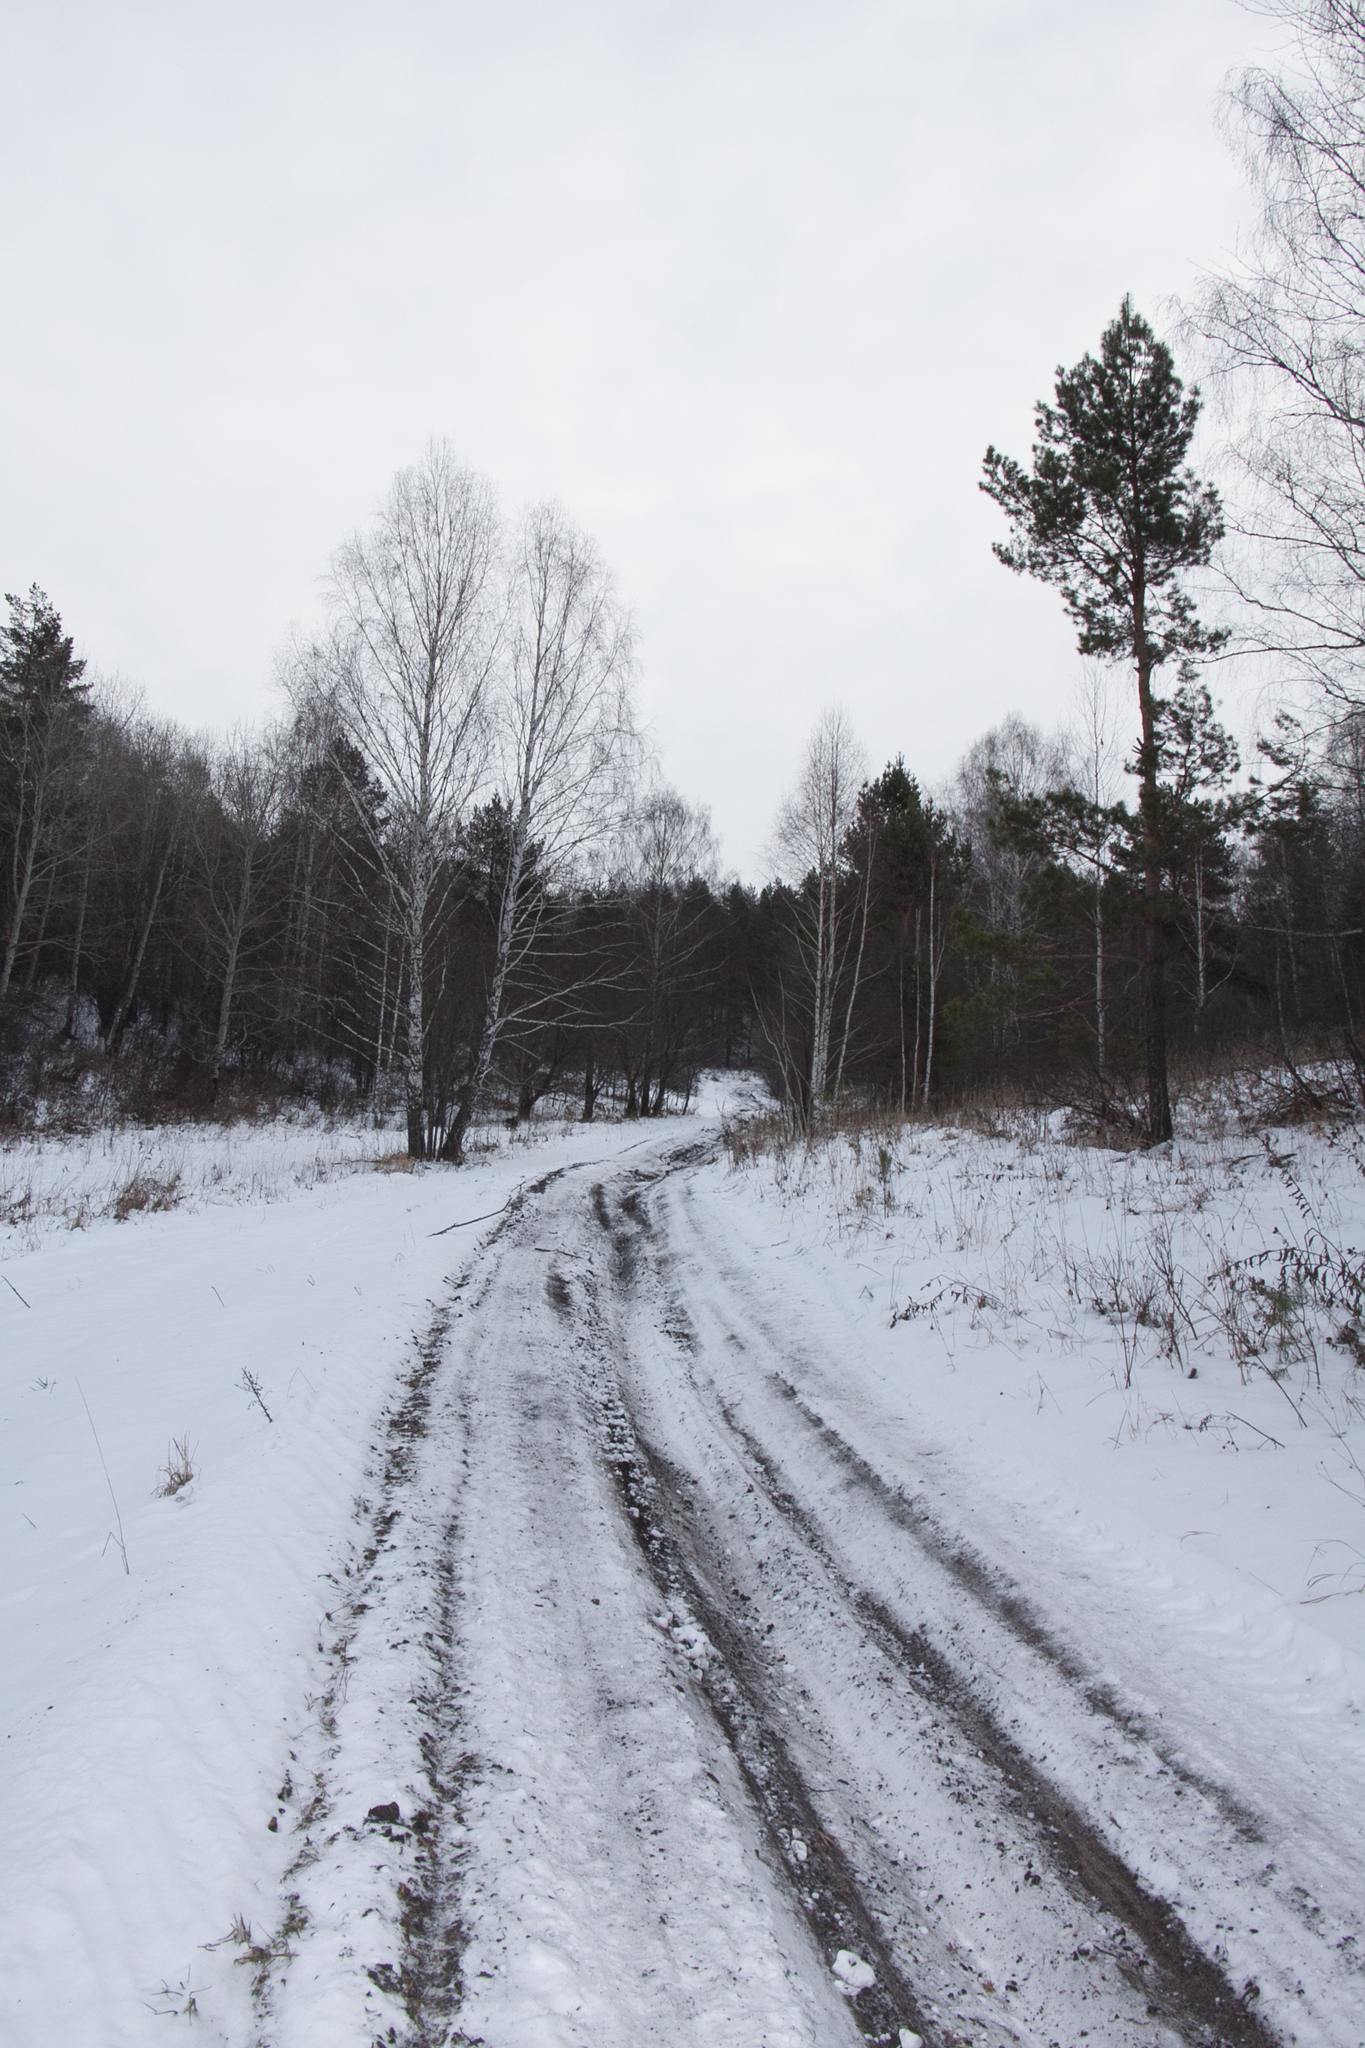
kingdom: Plantae
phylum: Tracheophyta
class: Pinopsida
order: Pinales
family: Pinaceae
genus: Pinus
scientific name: Pinus sylvestris
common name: Scots pine
